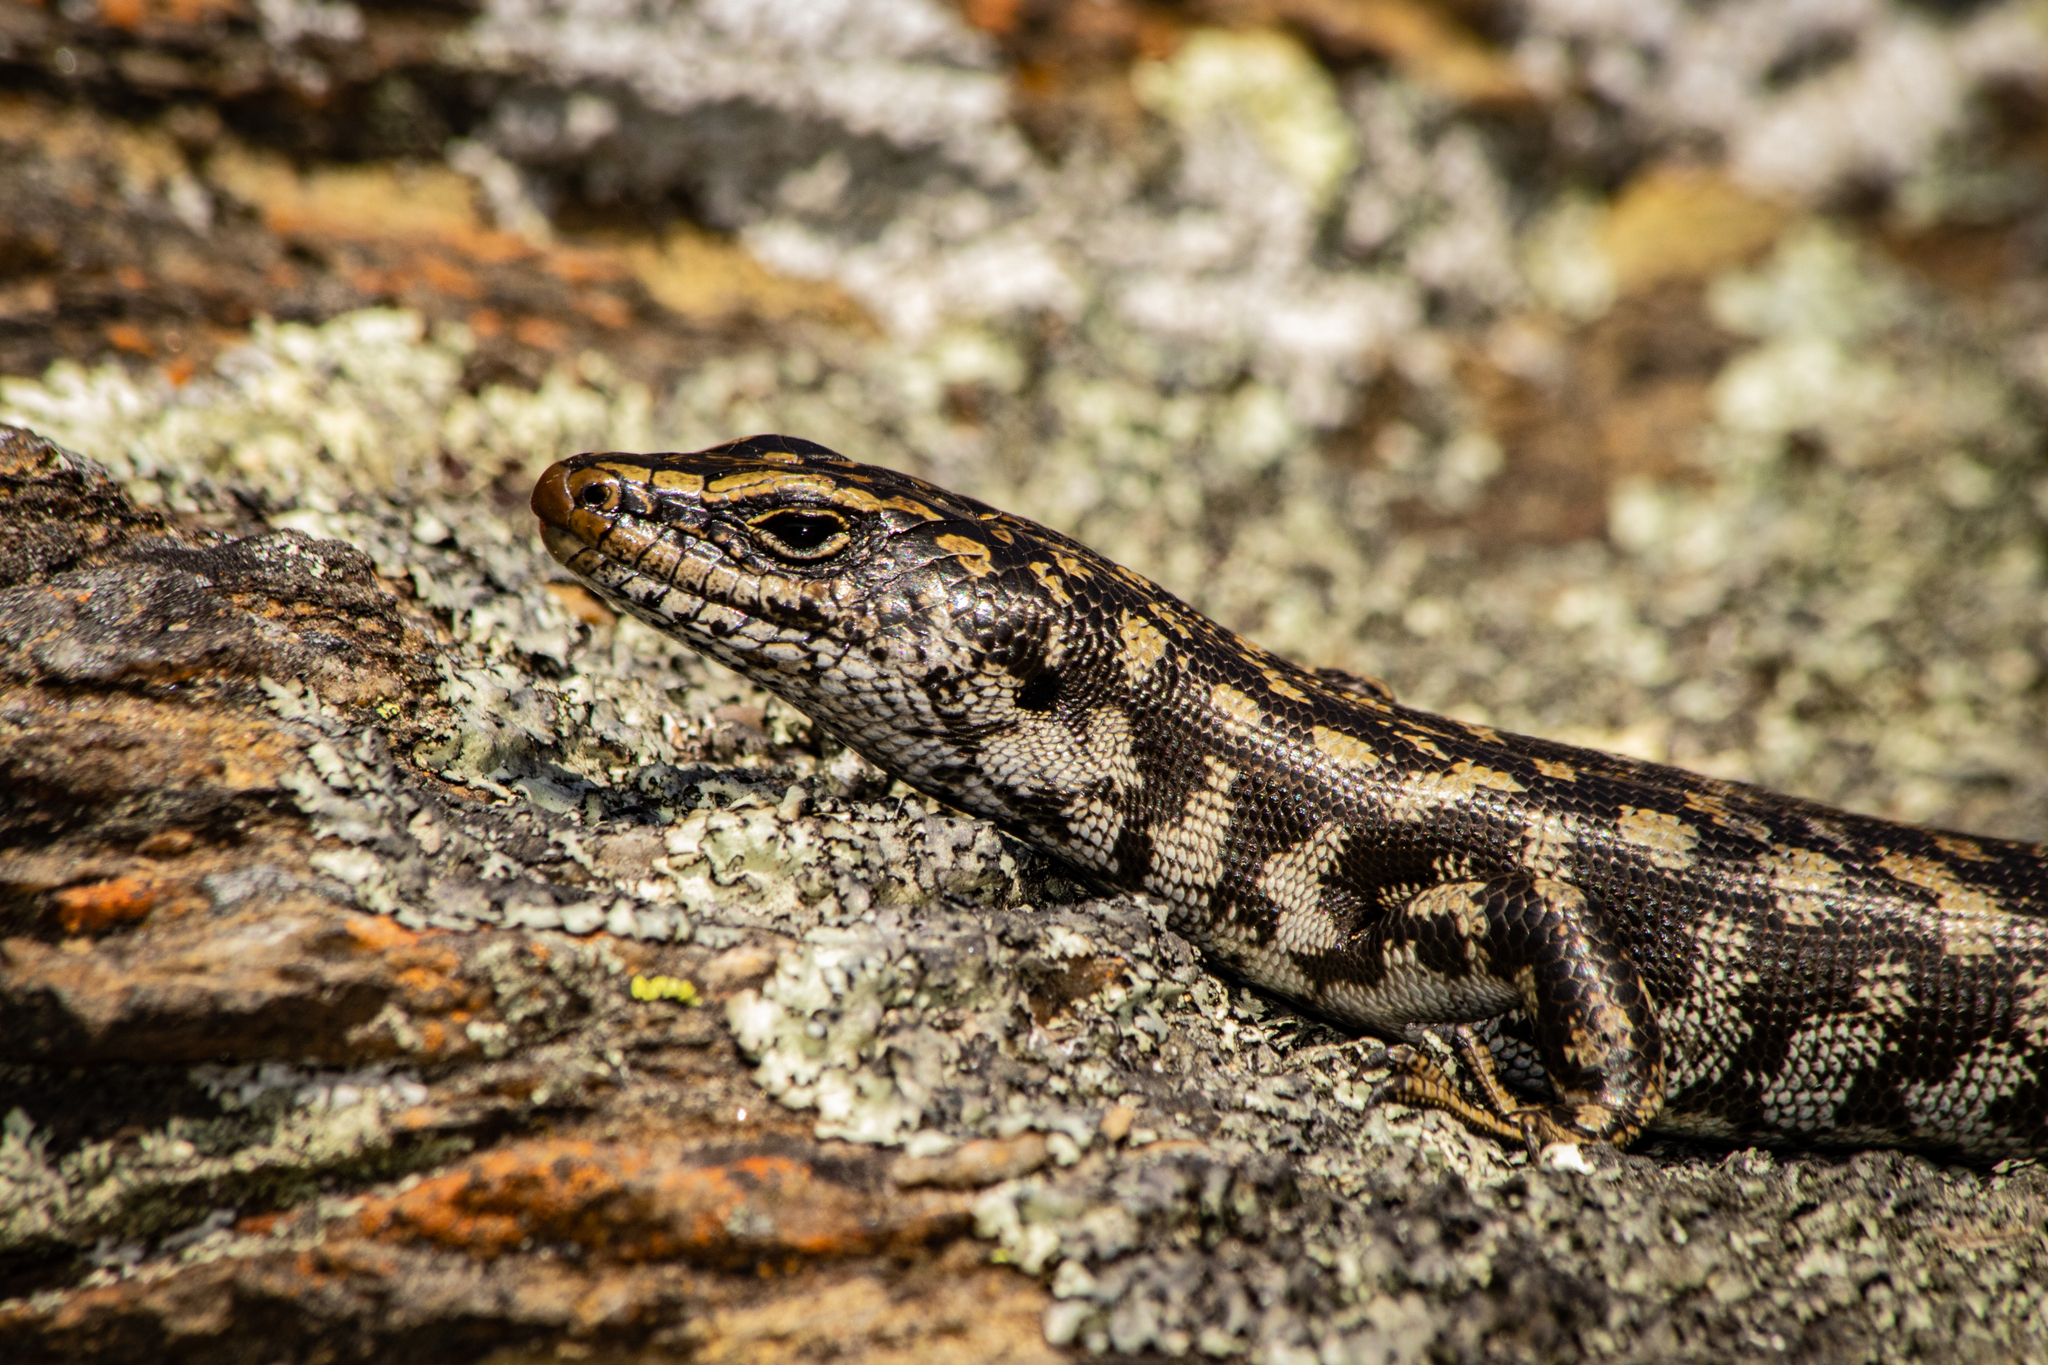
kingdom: Animalia
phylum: Chordata
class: Squamata
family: Scincidae
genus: Oligosoma
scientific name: Oligosoma otagense
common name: Otago skink
